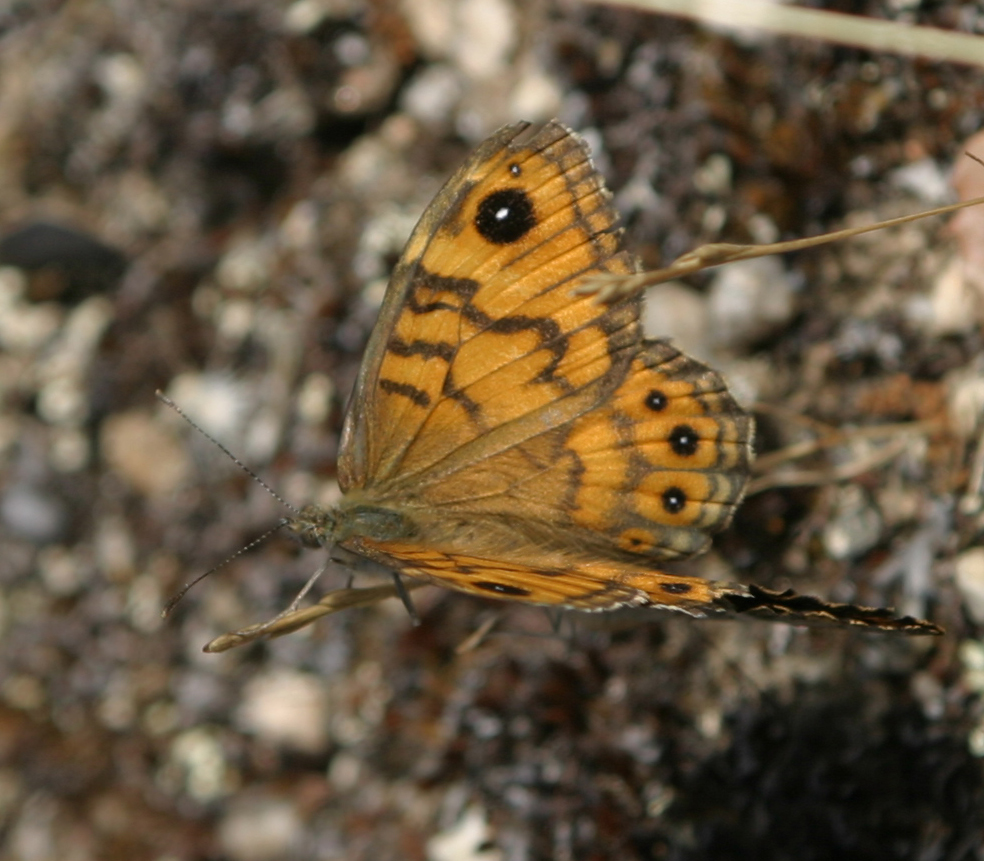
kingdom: Animalia
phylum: Arthropoda
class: Insecta
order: Lepidoptera
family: Nymphalidae
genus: Pararge
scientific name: Pararge Lasiommata megera
